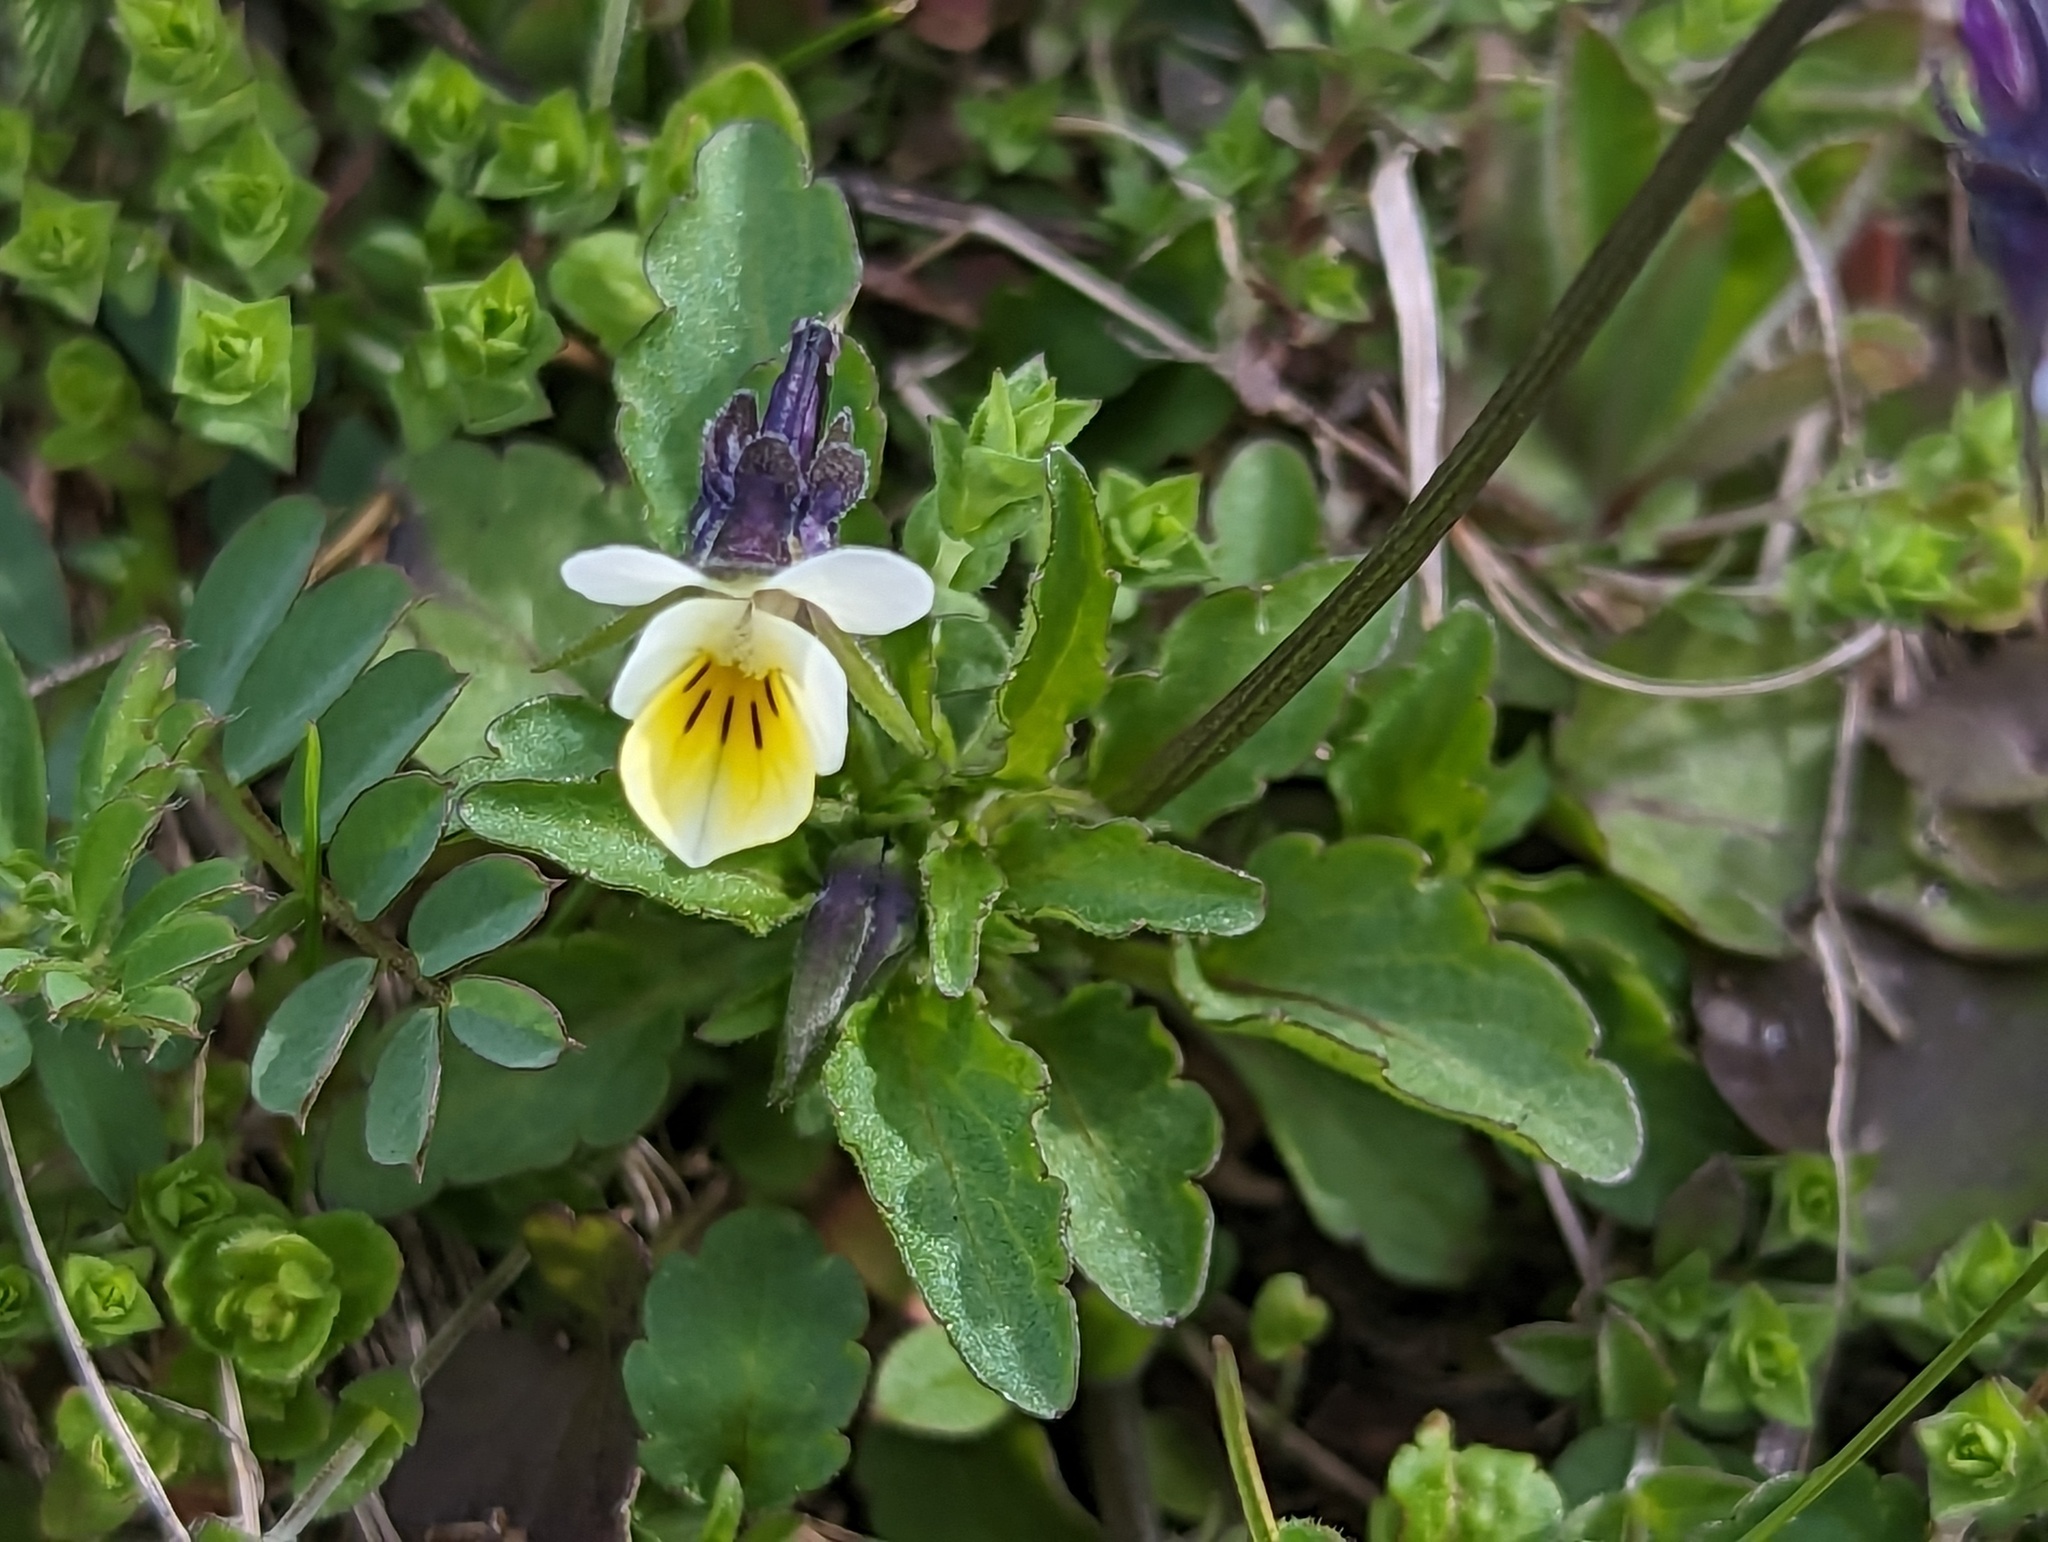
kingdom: Plantae
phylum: Tracheophyta
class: Magnoliopsida
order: Malpighiales
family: Violaceae
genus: Viola
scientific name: Viola arvensis
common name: Field pansy
